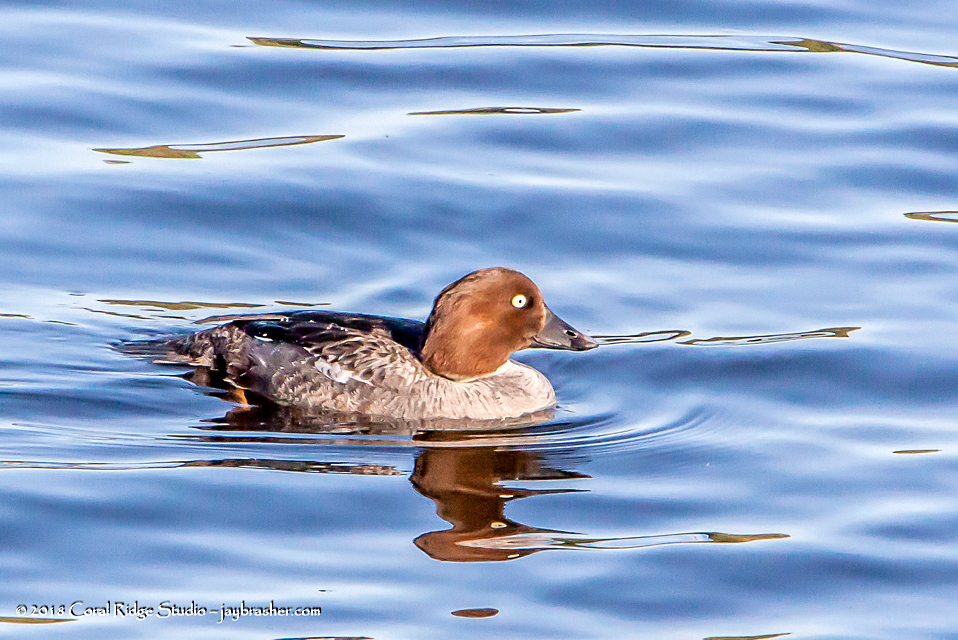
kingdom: Animalia
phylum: Chordata
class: Aves
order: Anseriformes
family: Anatidae
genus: Bucephala
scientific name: Bucephala clangula
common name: Common goldeneye
